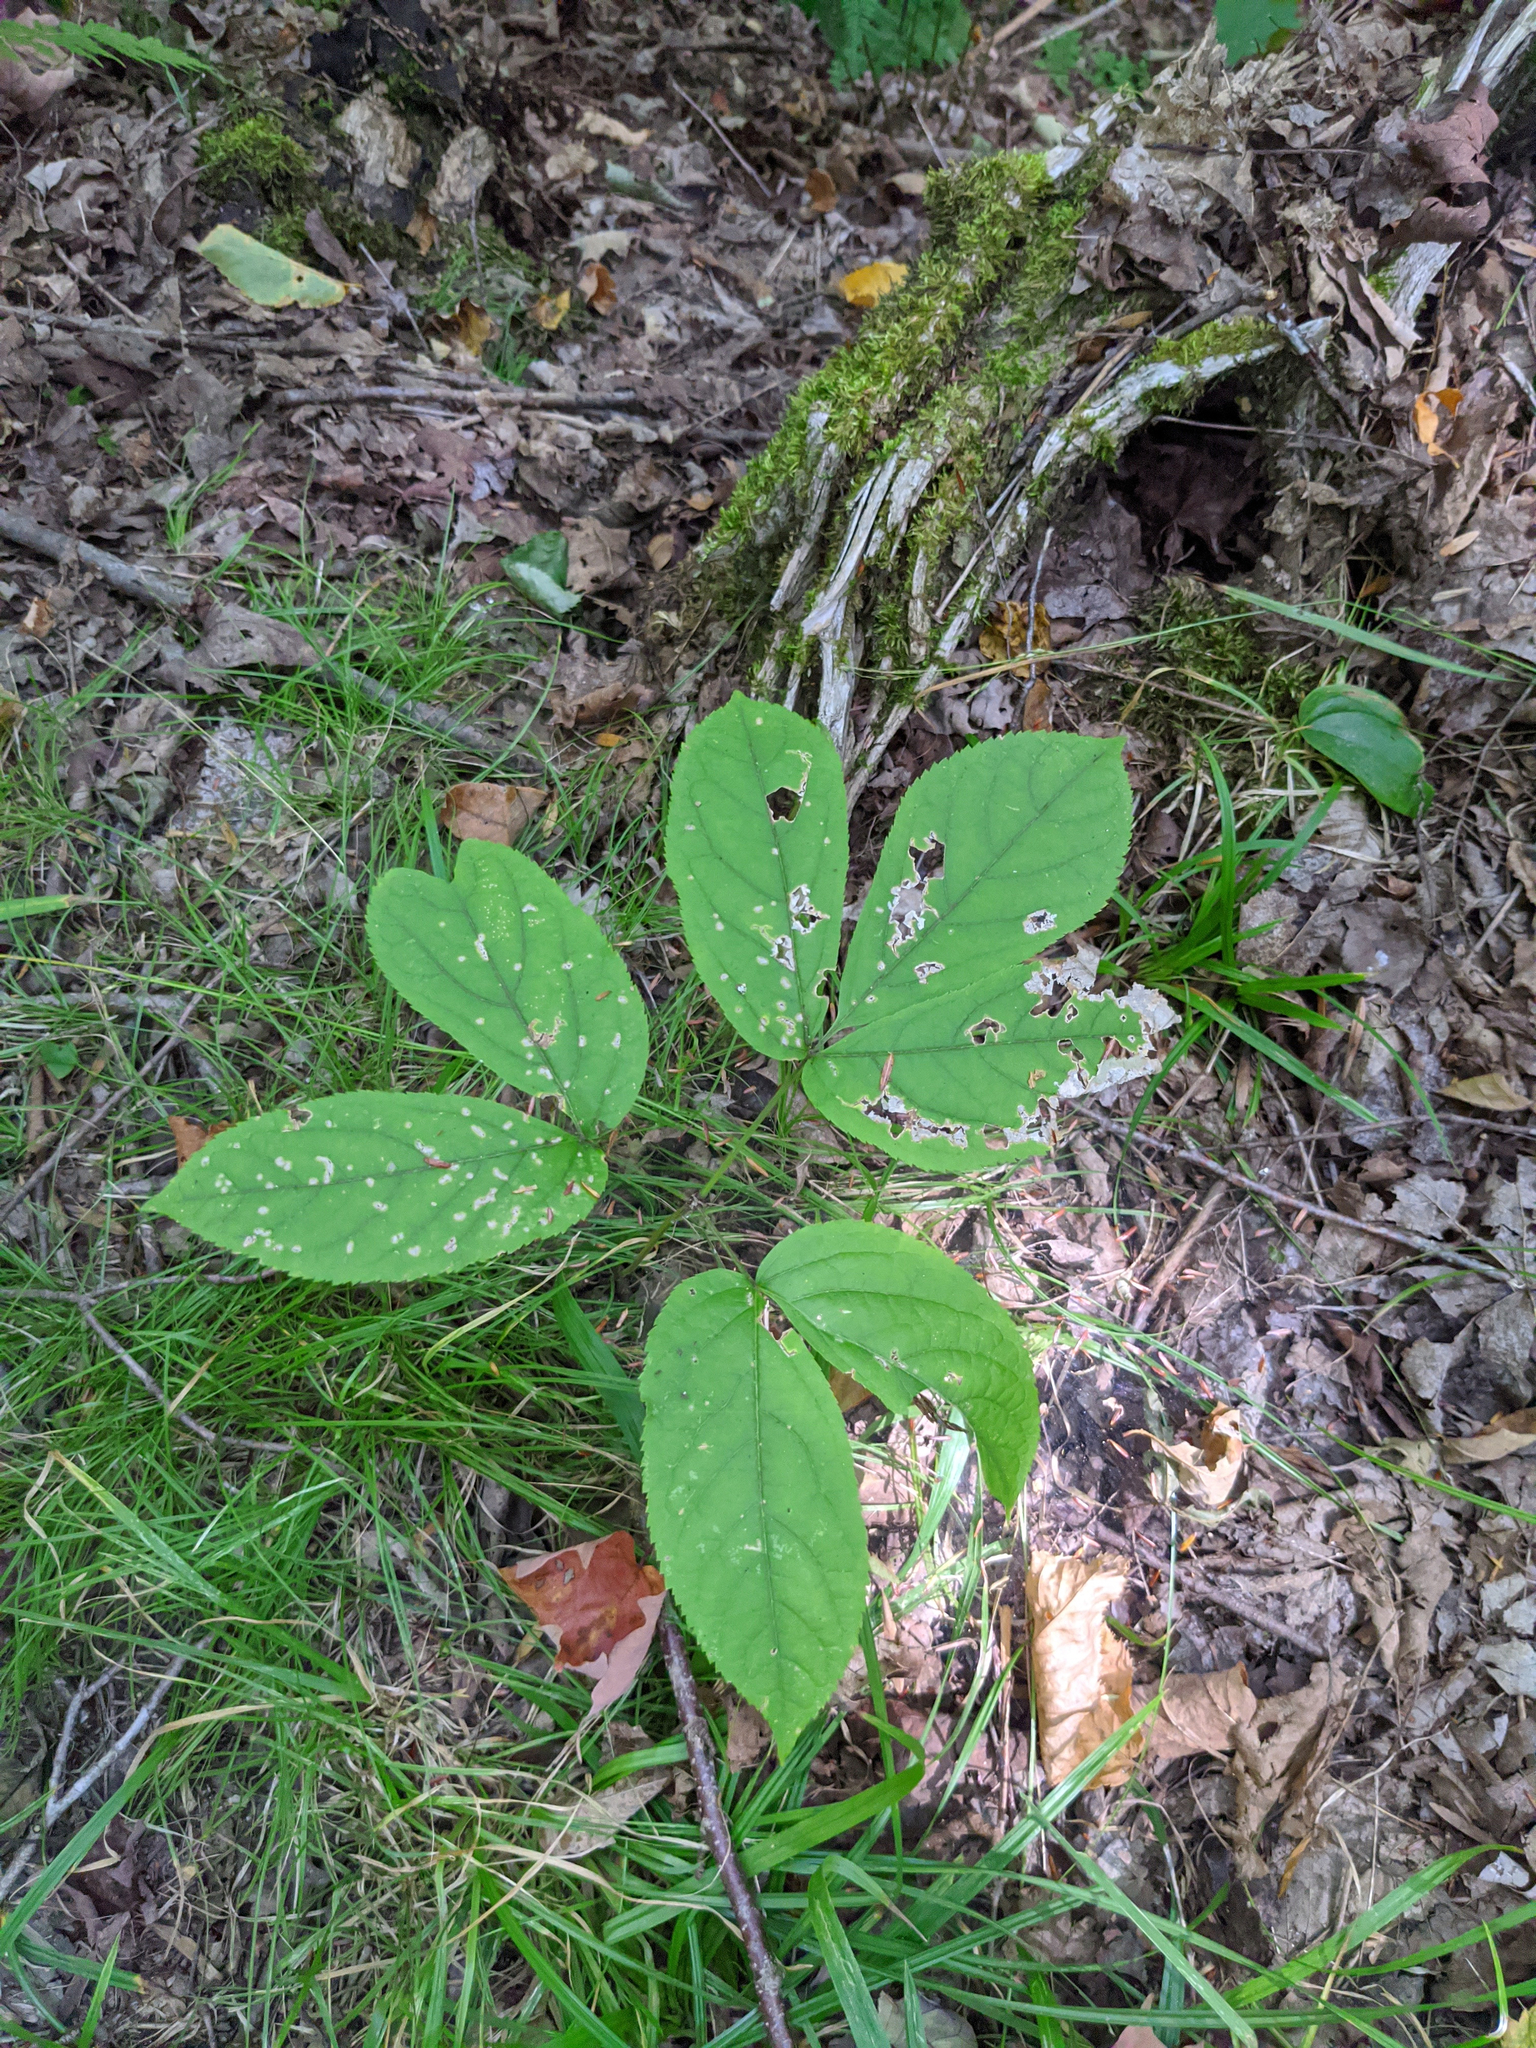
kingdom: Plantae
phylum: Tracheophyta
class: Magnoliopsida
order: Apiales
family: Araliaceae
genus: Aralia
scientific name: Aralia nudicaulis
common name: Wild sarsaparilla
